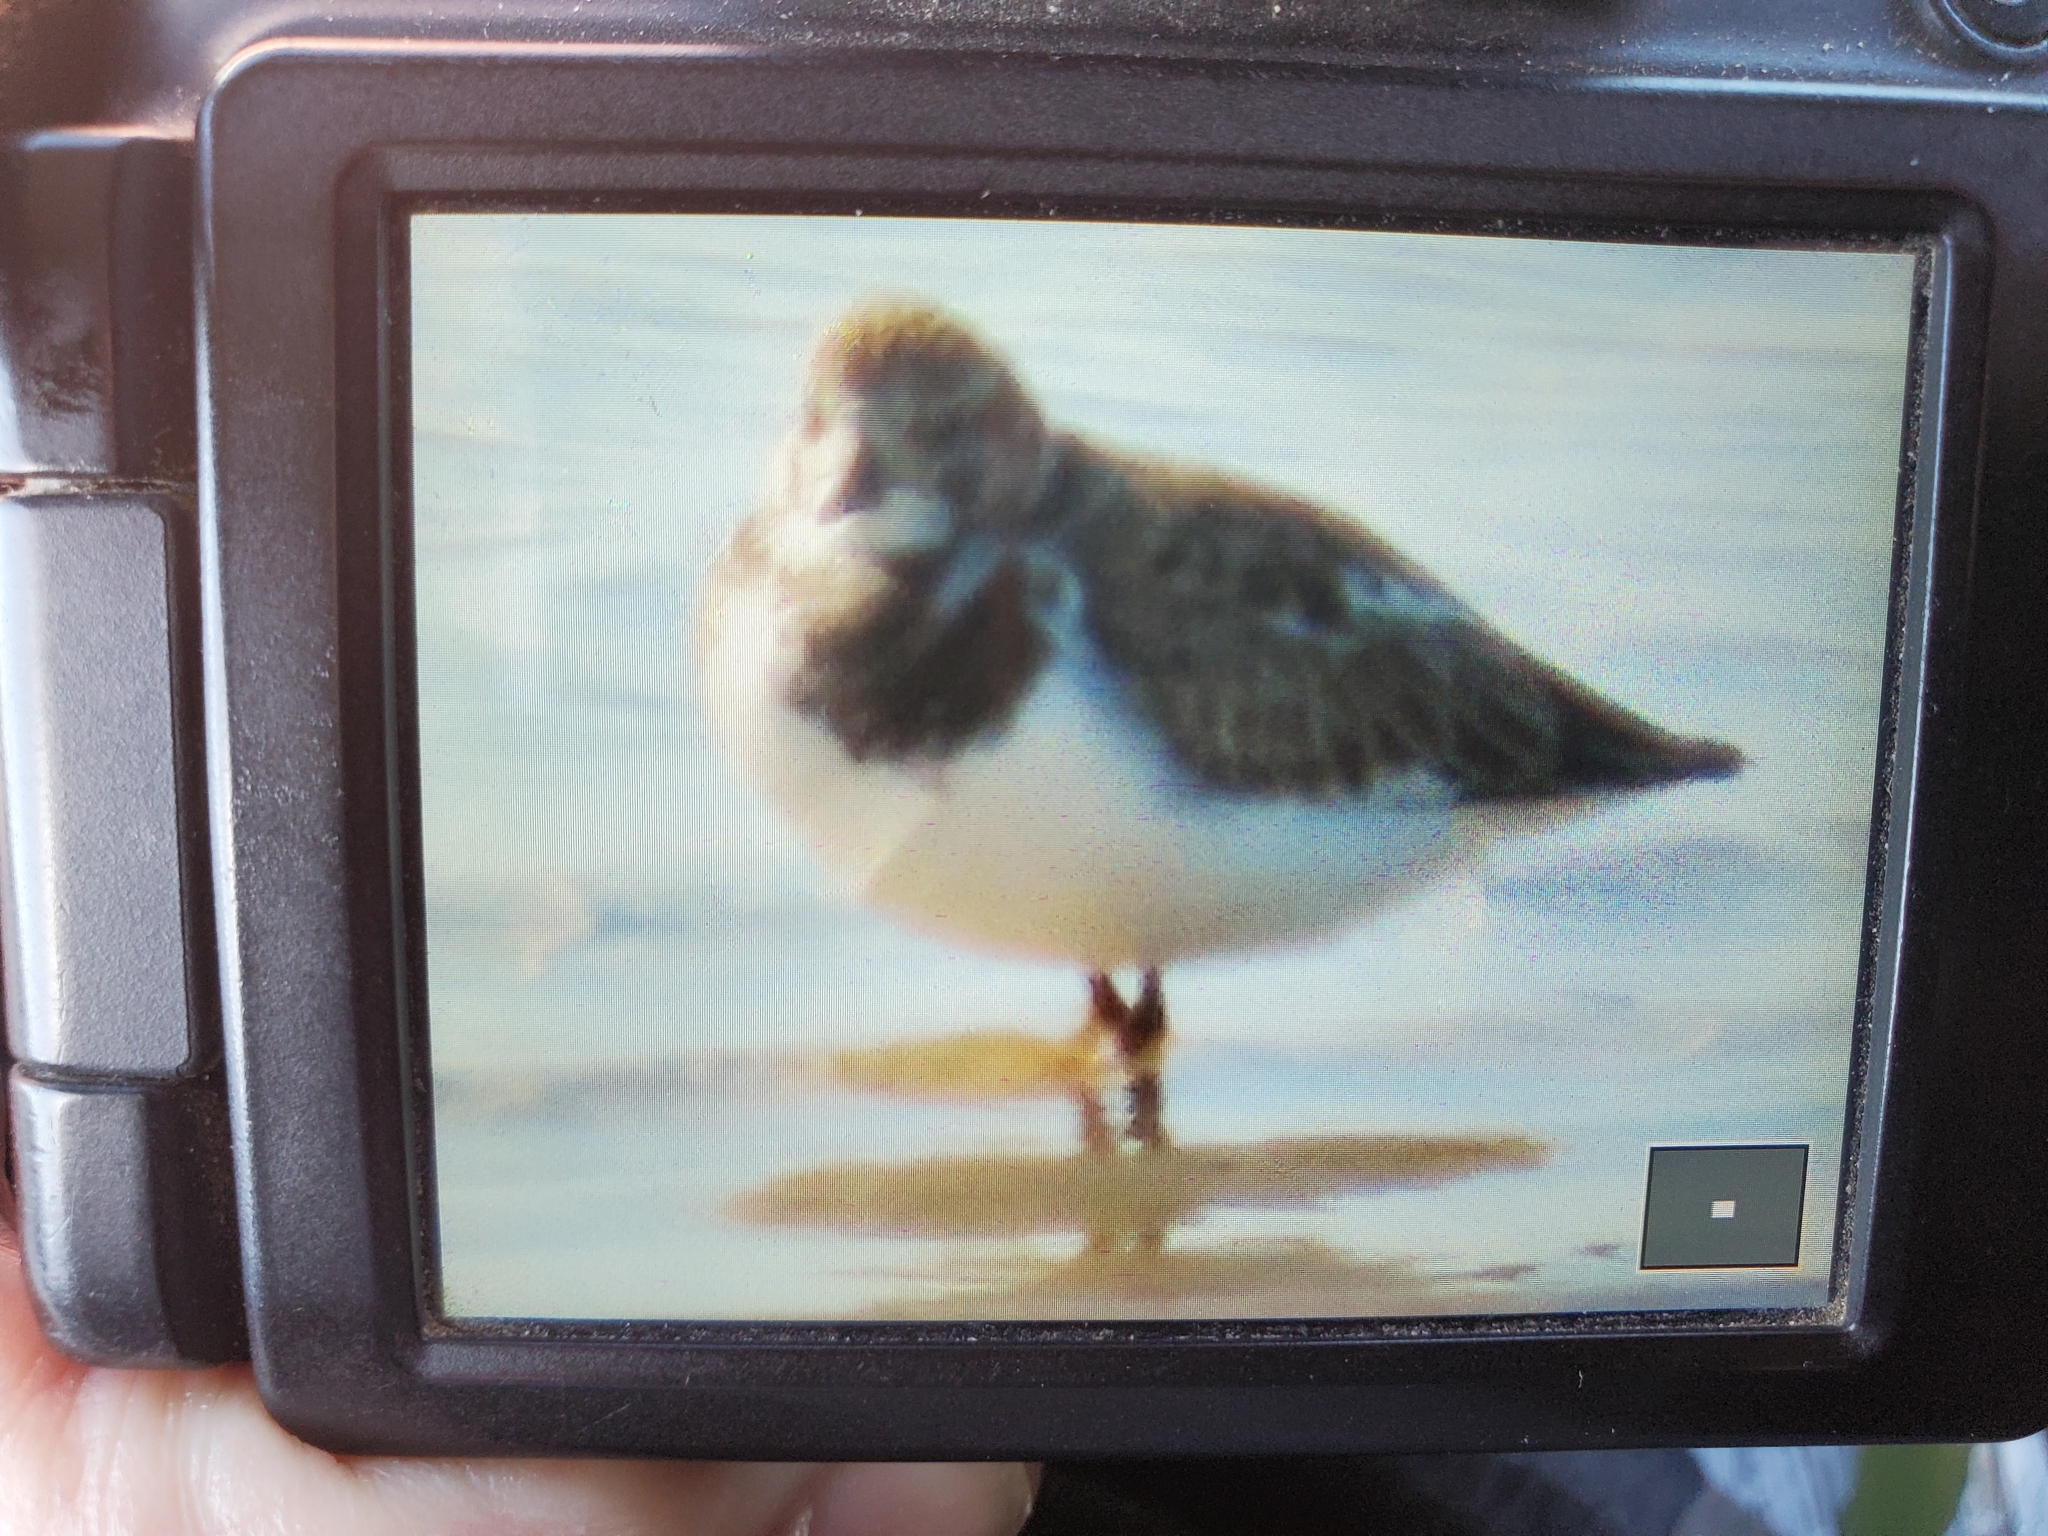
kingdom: Animalia
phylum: Chordata
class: Aves
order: Charadriiformes
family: Scolopacidae
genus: Arenaria
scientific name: Arenaria interpres
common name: Ruddy turnstone
